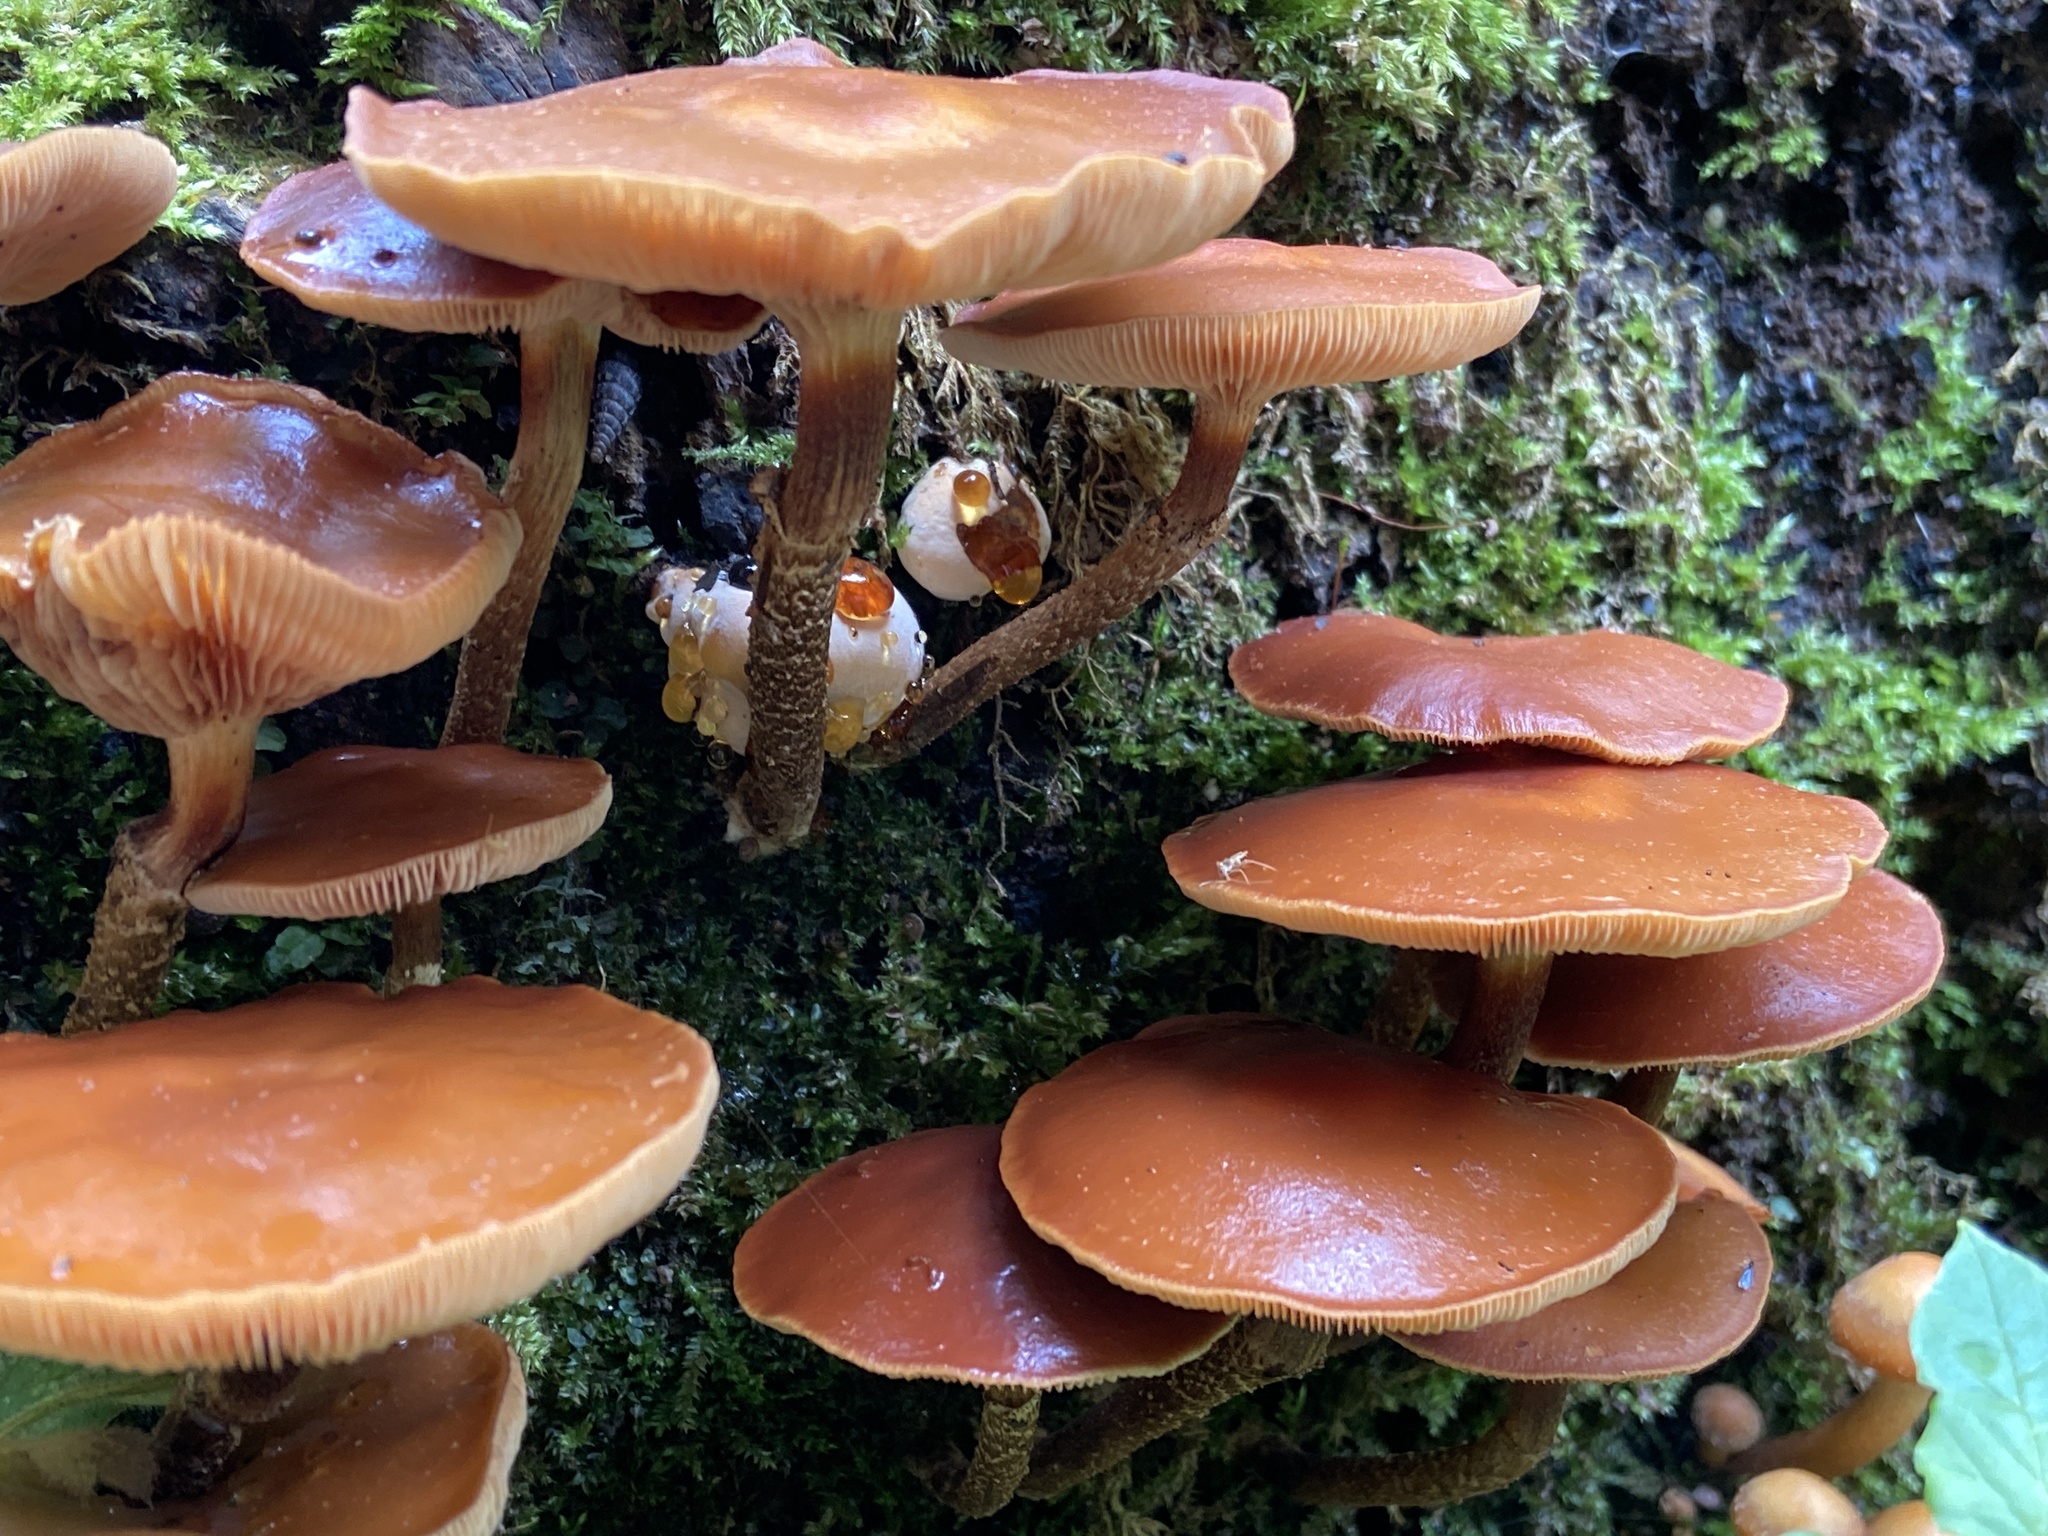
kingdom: Fungi
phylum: Basidiomycota
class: Agaricomycetes
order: Agaricales
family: Strophariaceae
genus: Kuehneromyces
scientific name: Kuehneromyces mutabilis
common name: Sheathed woodtuft
